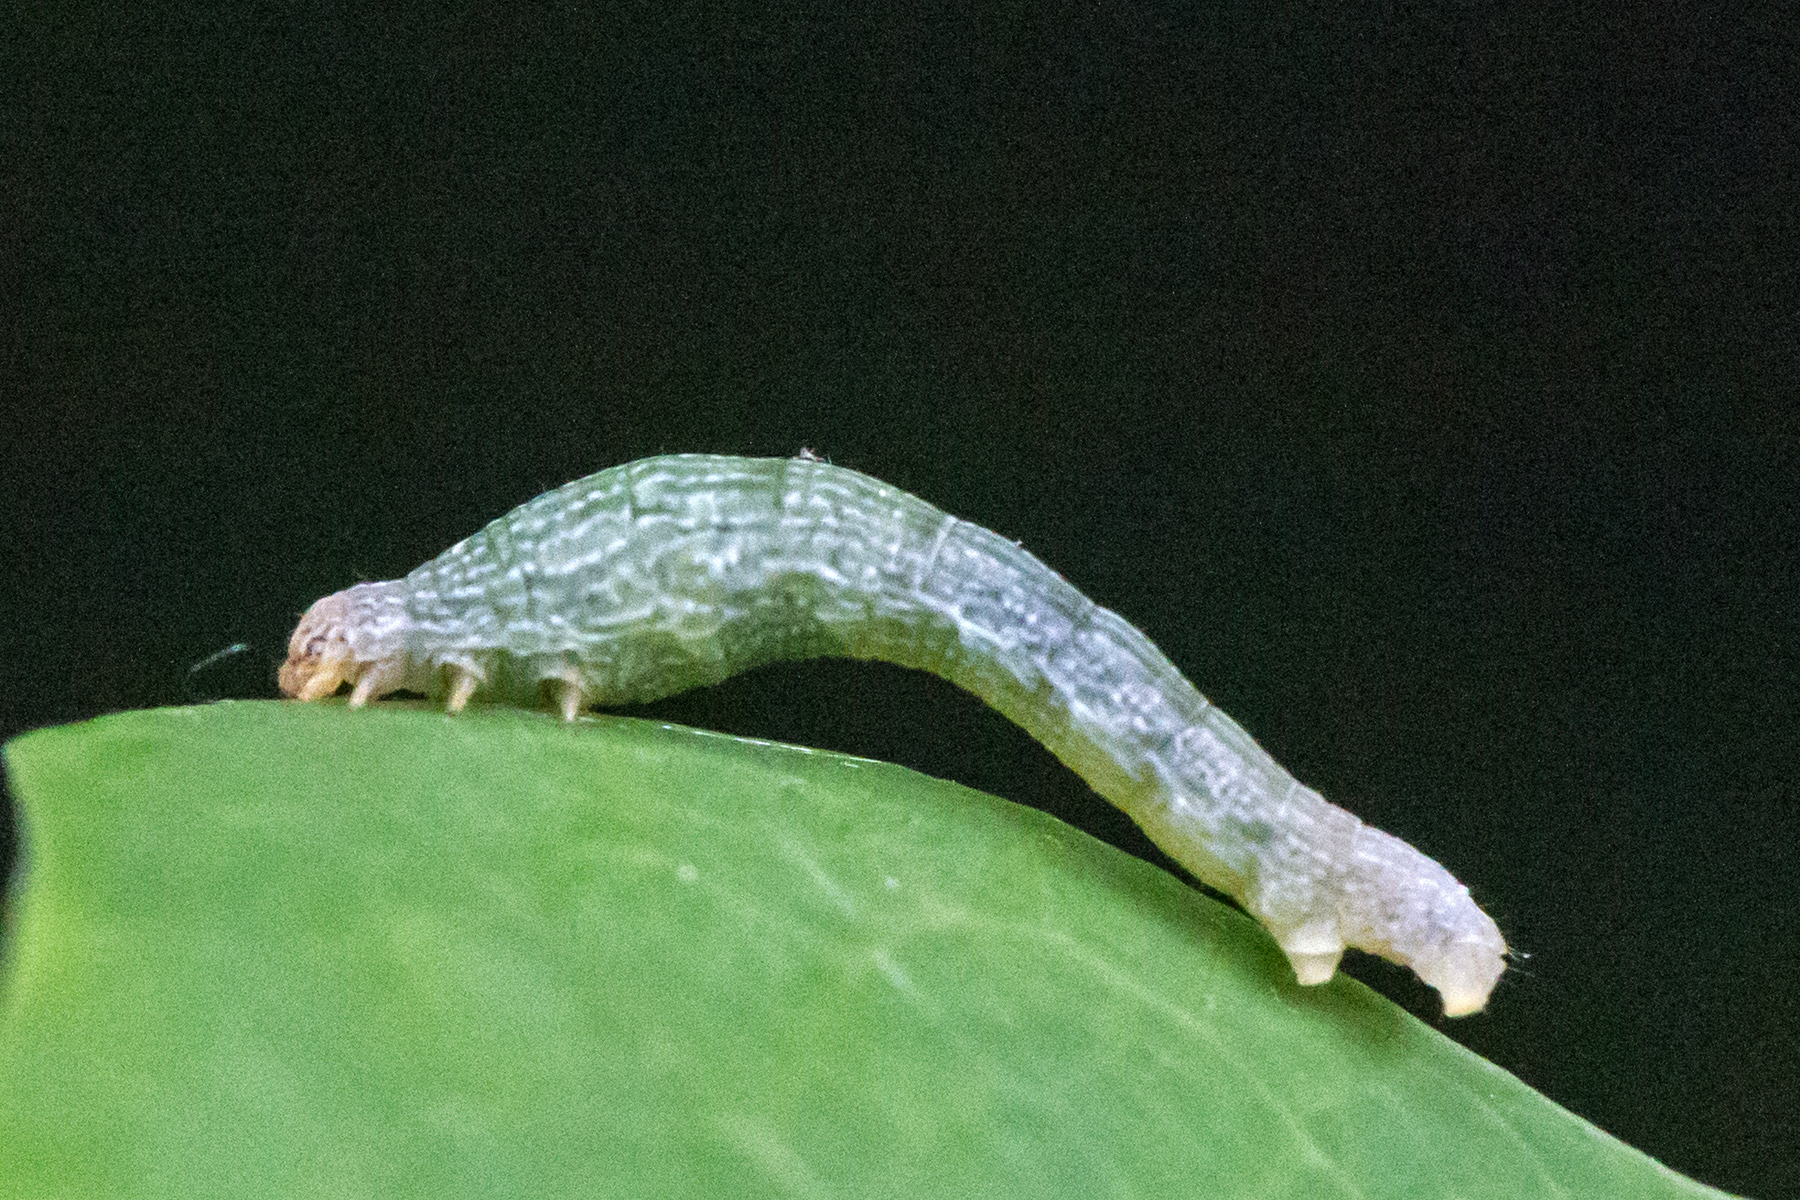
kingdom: Animalia
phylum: Arthropoda
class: Insecta
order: Lepidoptera
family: Geometridae
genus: Epimecis
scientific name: Epimecis hortaria
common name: Tulip-tree beauty
